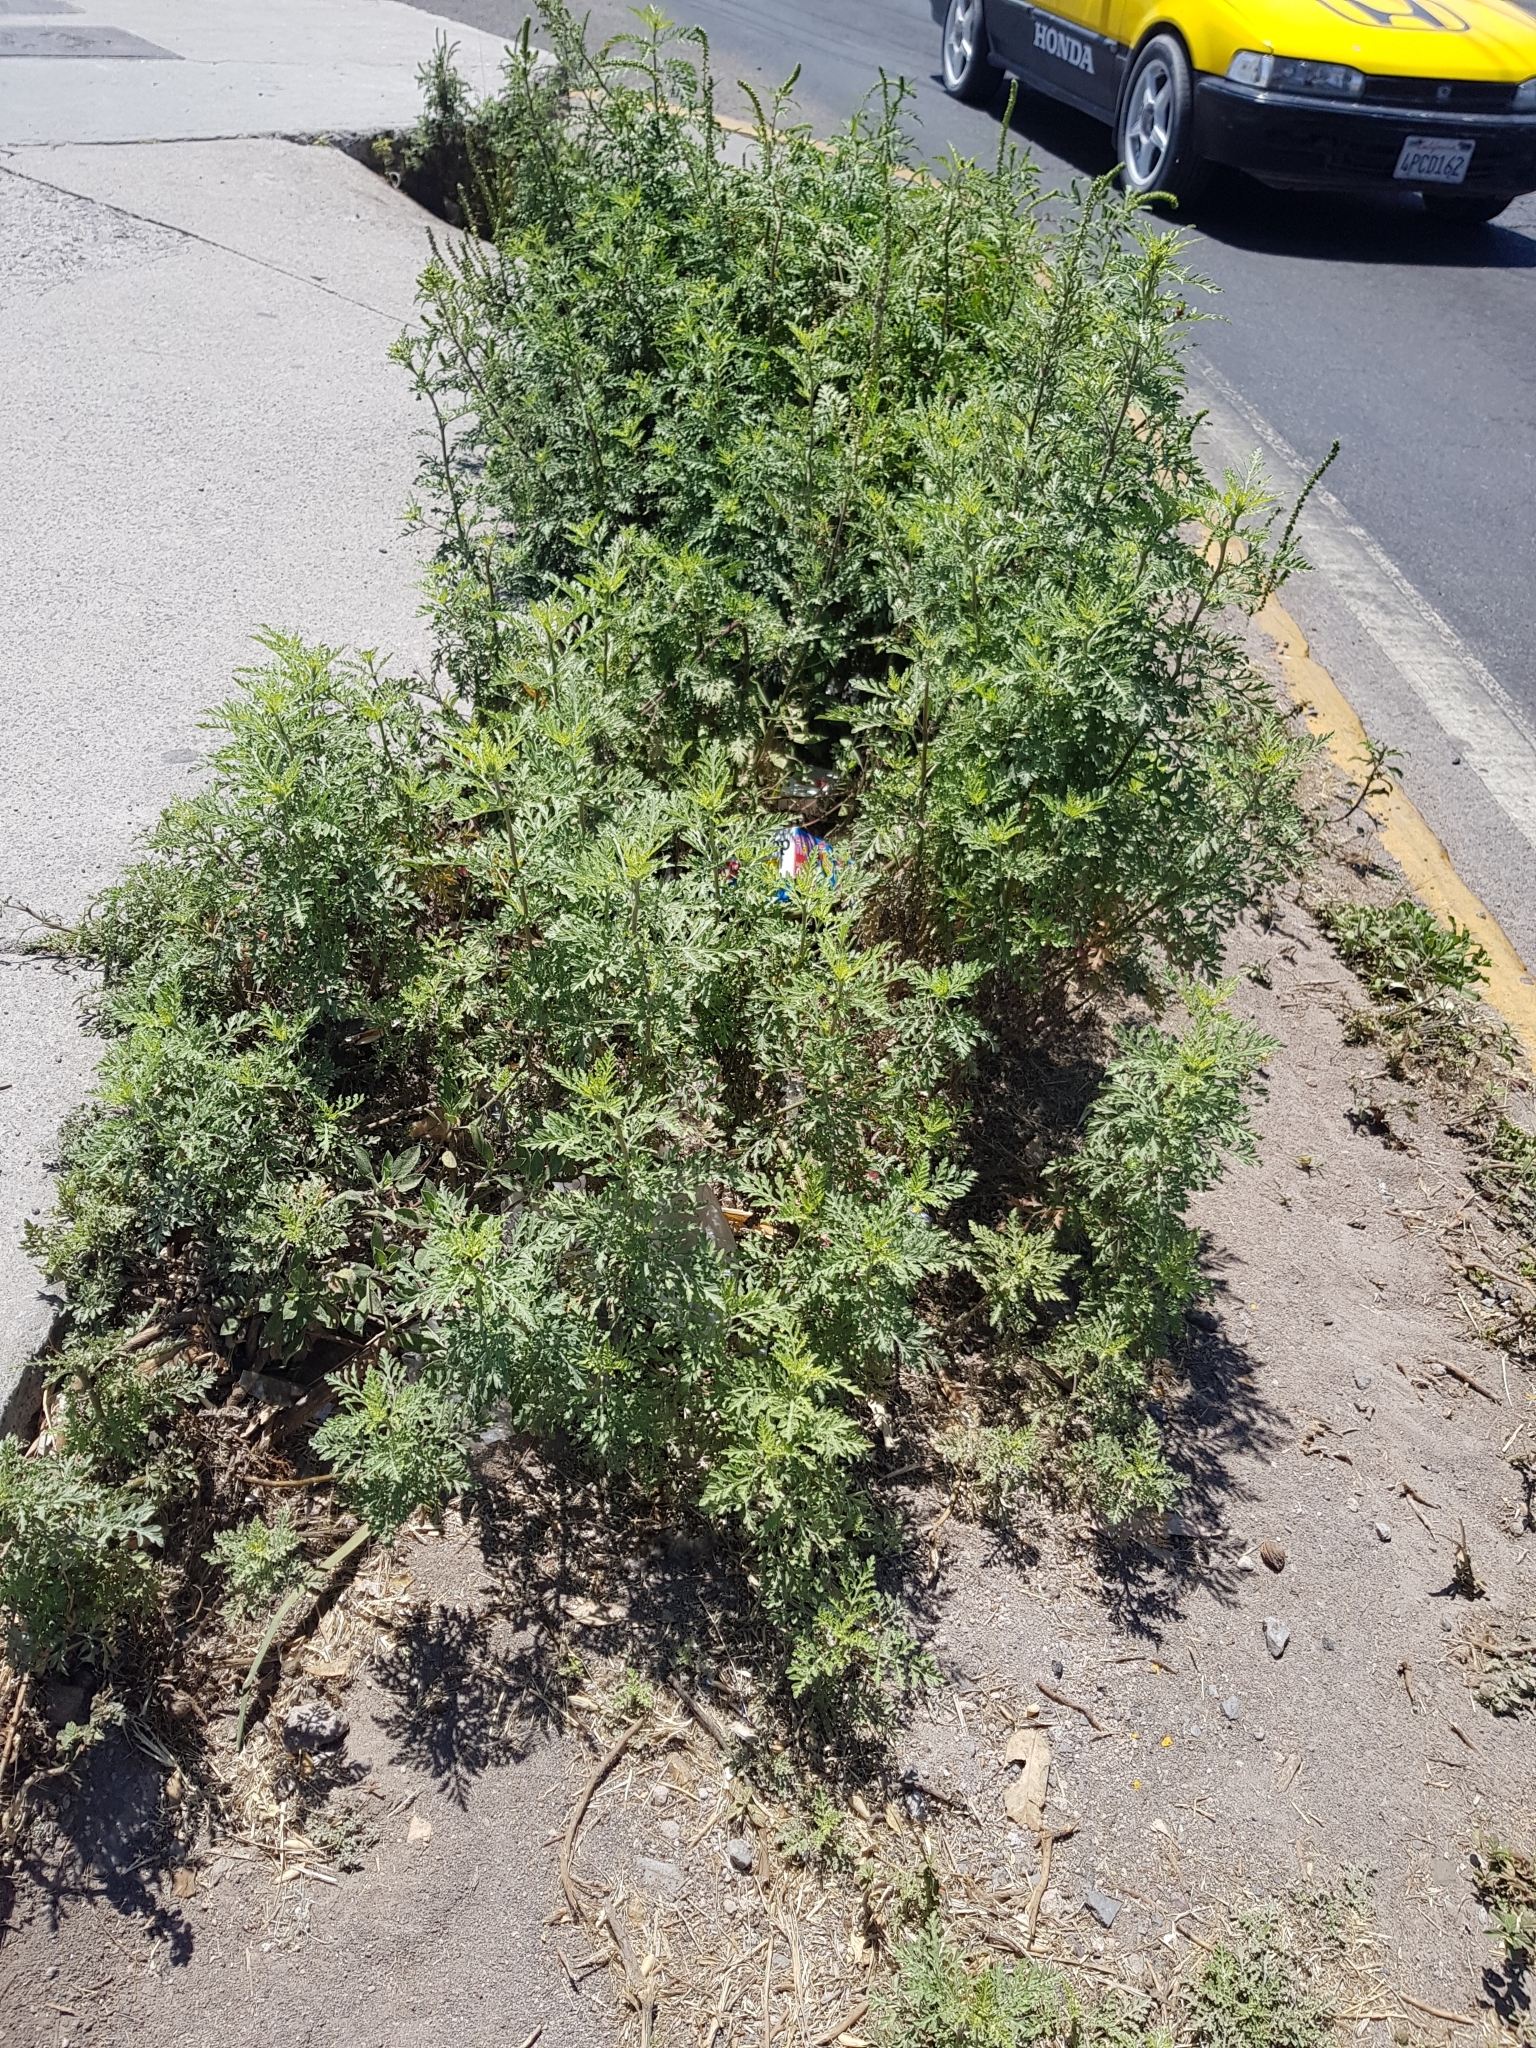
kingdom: Plantae
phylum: Tracheophyta
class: Magnoliopsida
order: Asterales
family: Asteraceae
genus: Artemisia
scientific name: Artemisia absinthium
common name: Wormwood
